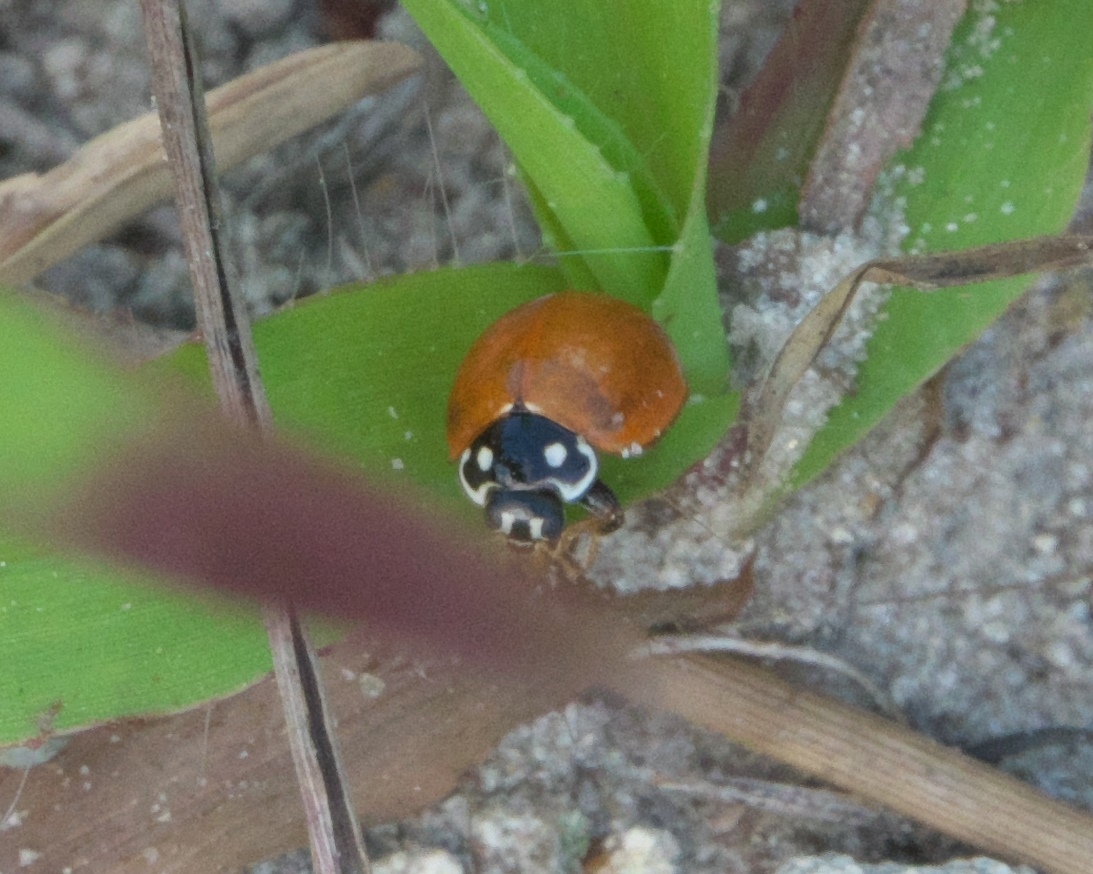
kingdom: Animalia
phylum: Arthropoda
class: Insecta
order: Coleoptera
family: Coccinellidae
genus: Cycloneda
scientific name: Cycloneda sanguinea
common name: Ladybird beetle
